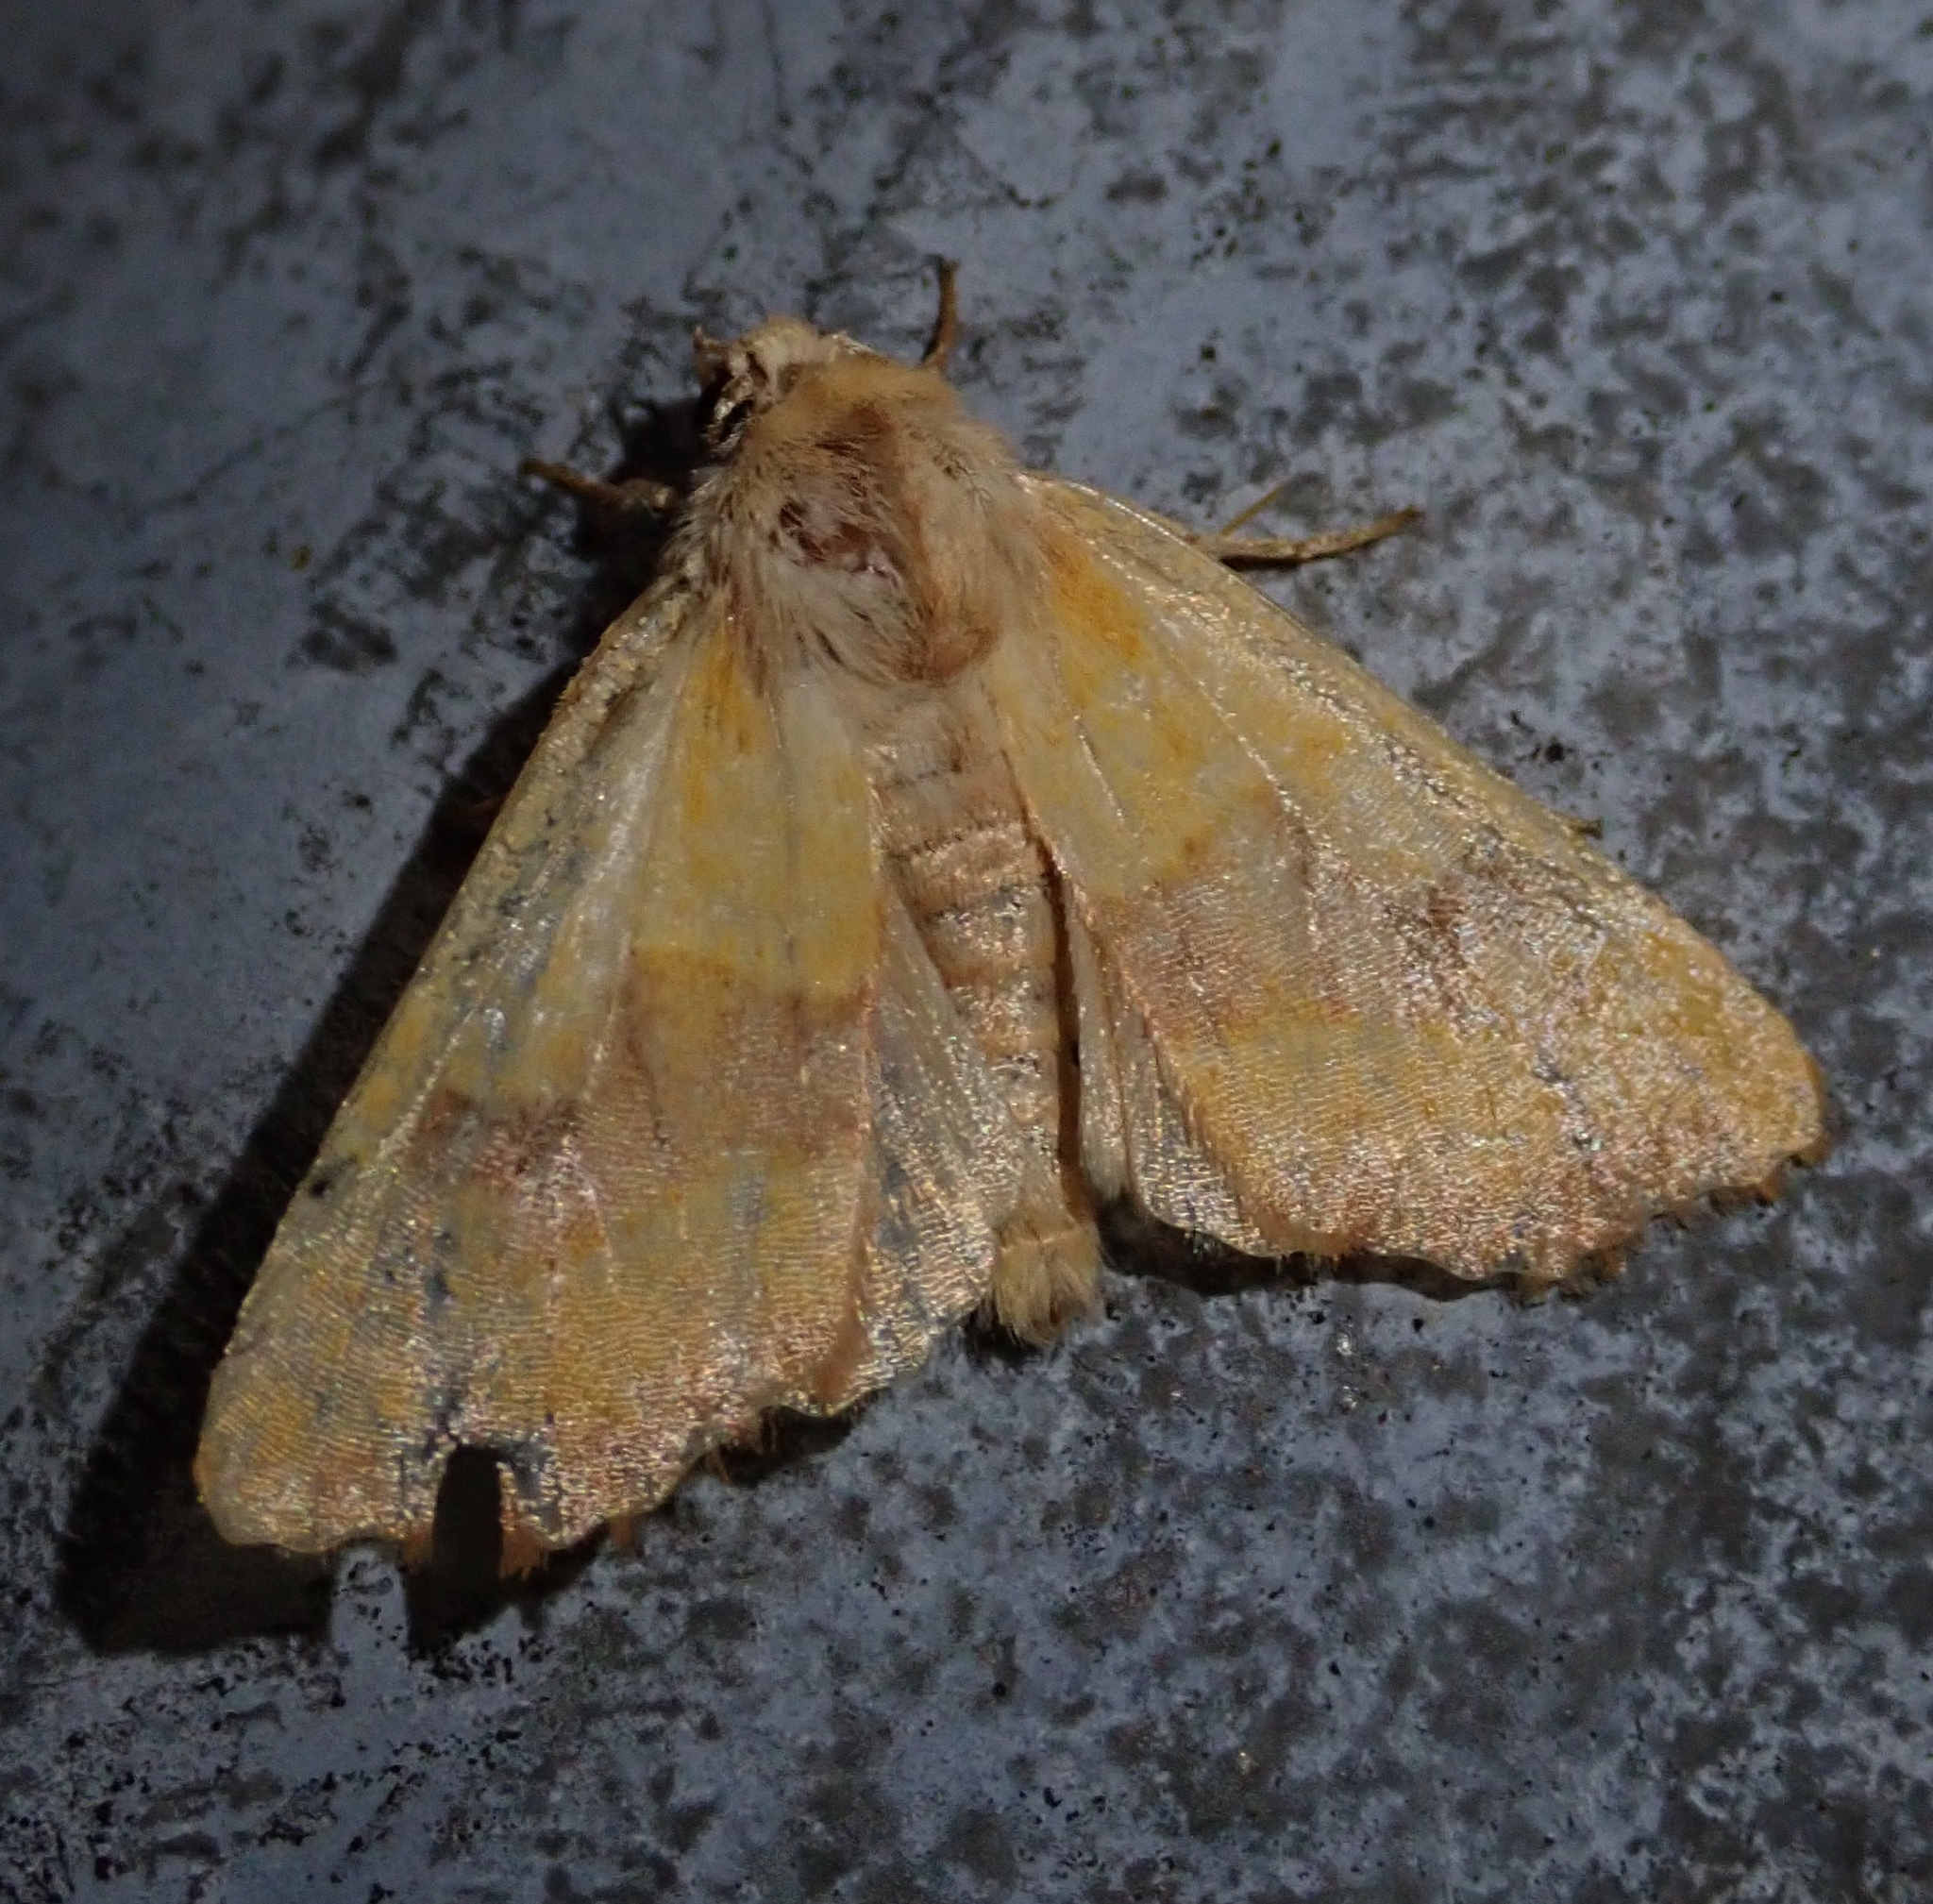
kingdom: Animalia
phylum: Arthropoda
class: Insecta
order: Lepidoptera
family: Noctuidae
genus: Atethmia
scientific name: Atethmia centrago
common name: Centre-barred sallow
